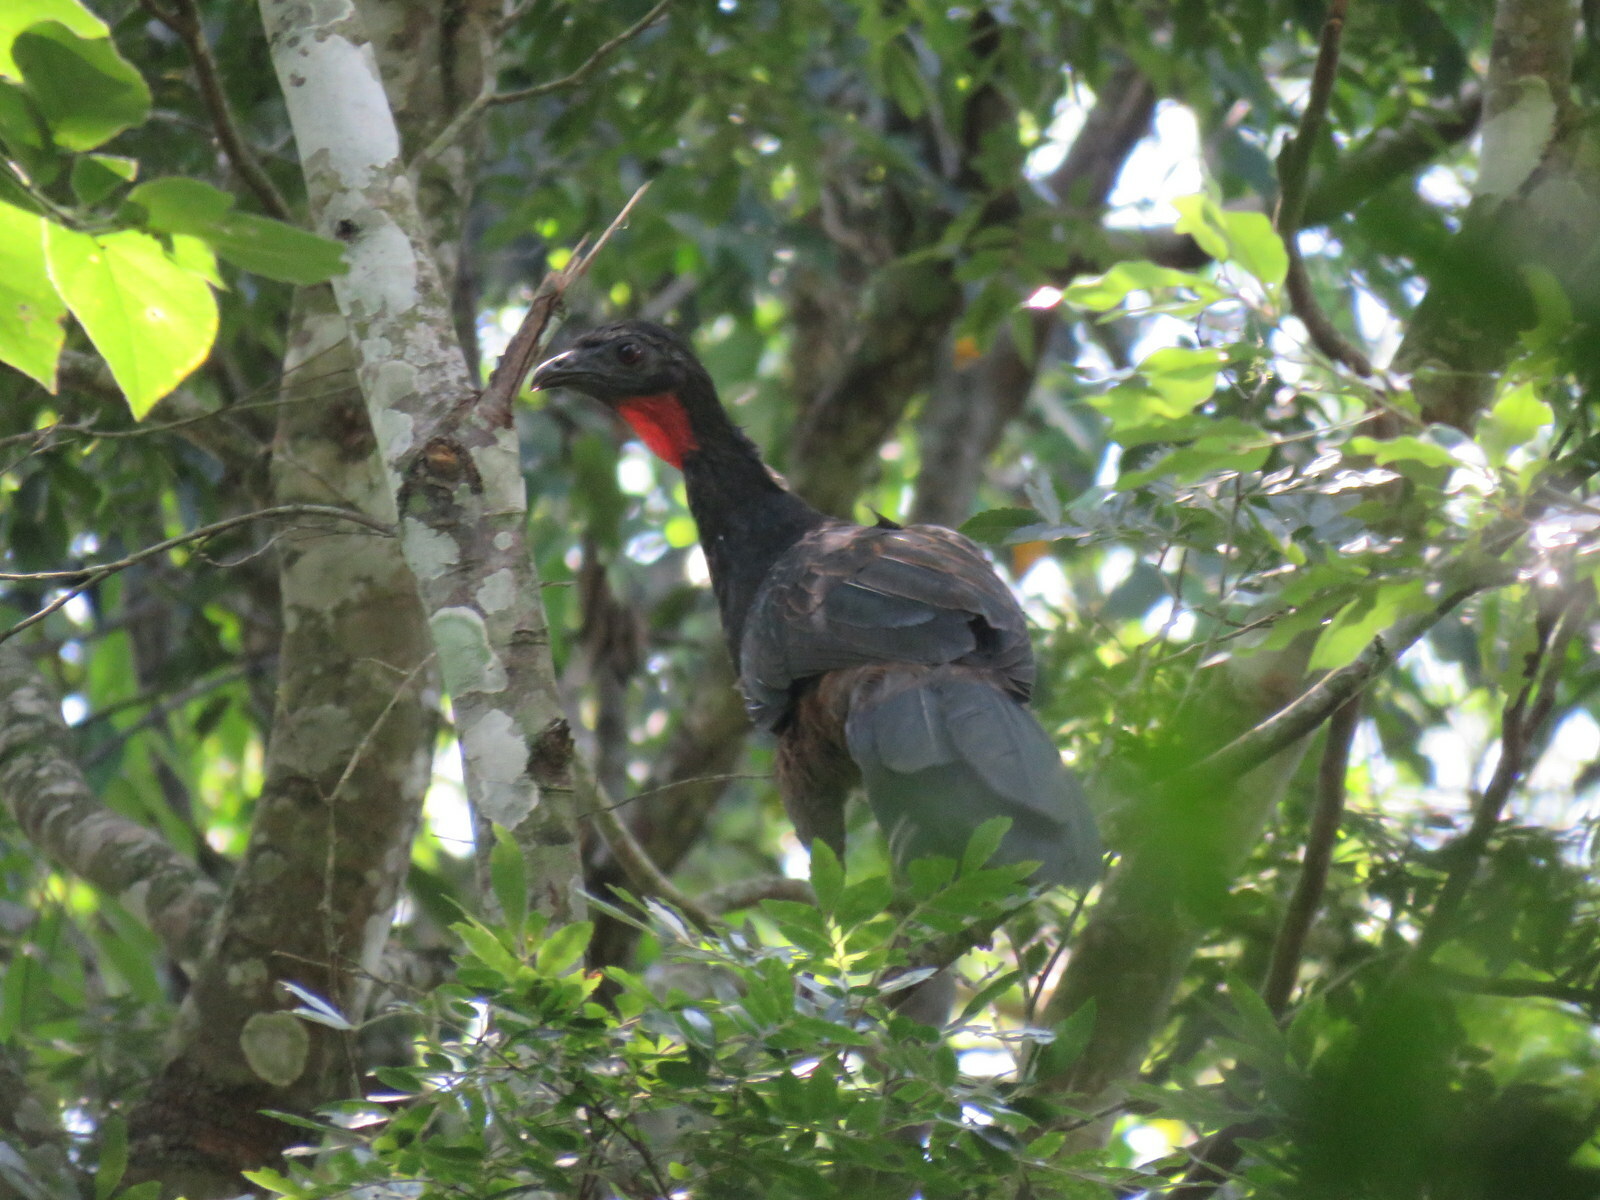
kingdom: Animalia
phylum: Chordata
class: Aves
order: Galliformes
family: Cracidae
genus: Penelope
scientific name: Penelope superciliaris
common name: Rusty-margined guan
